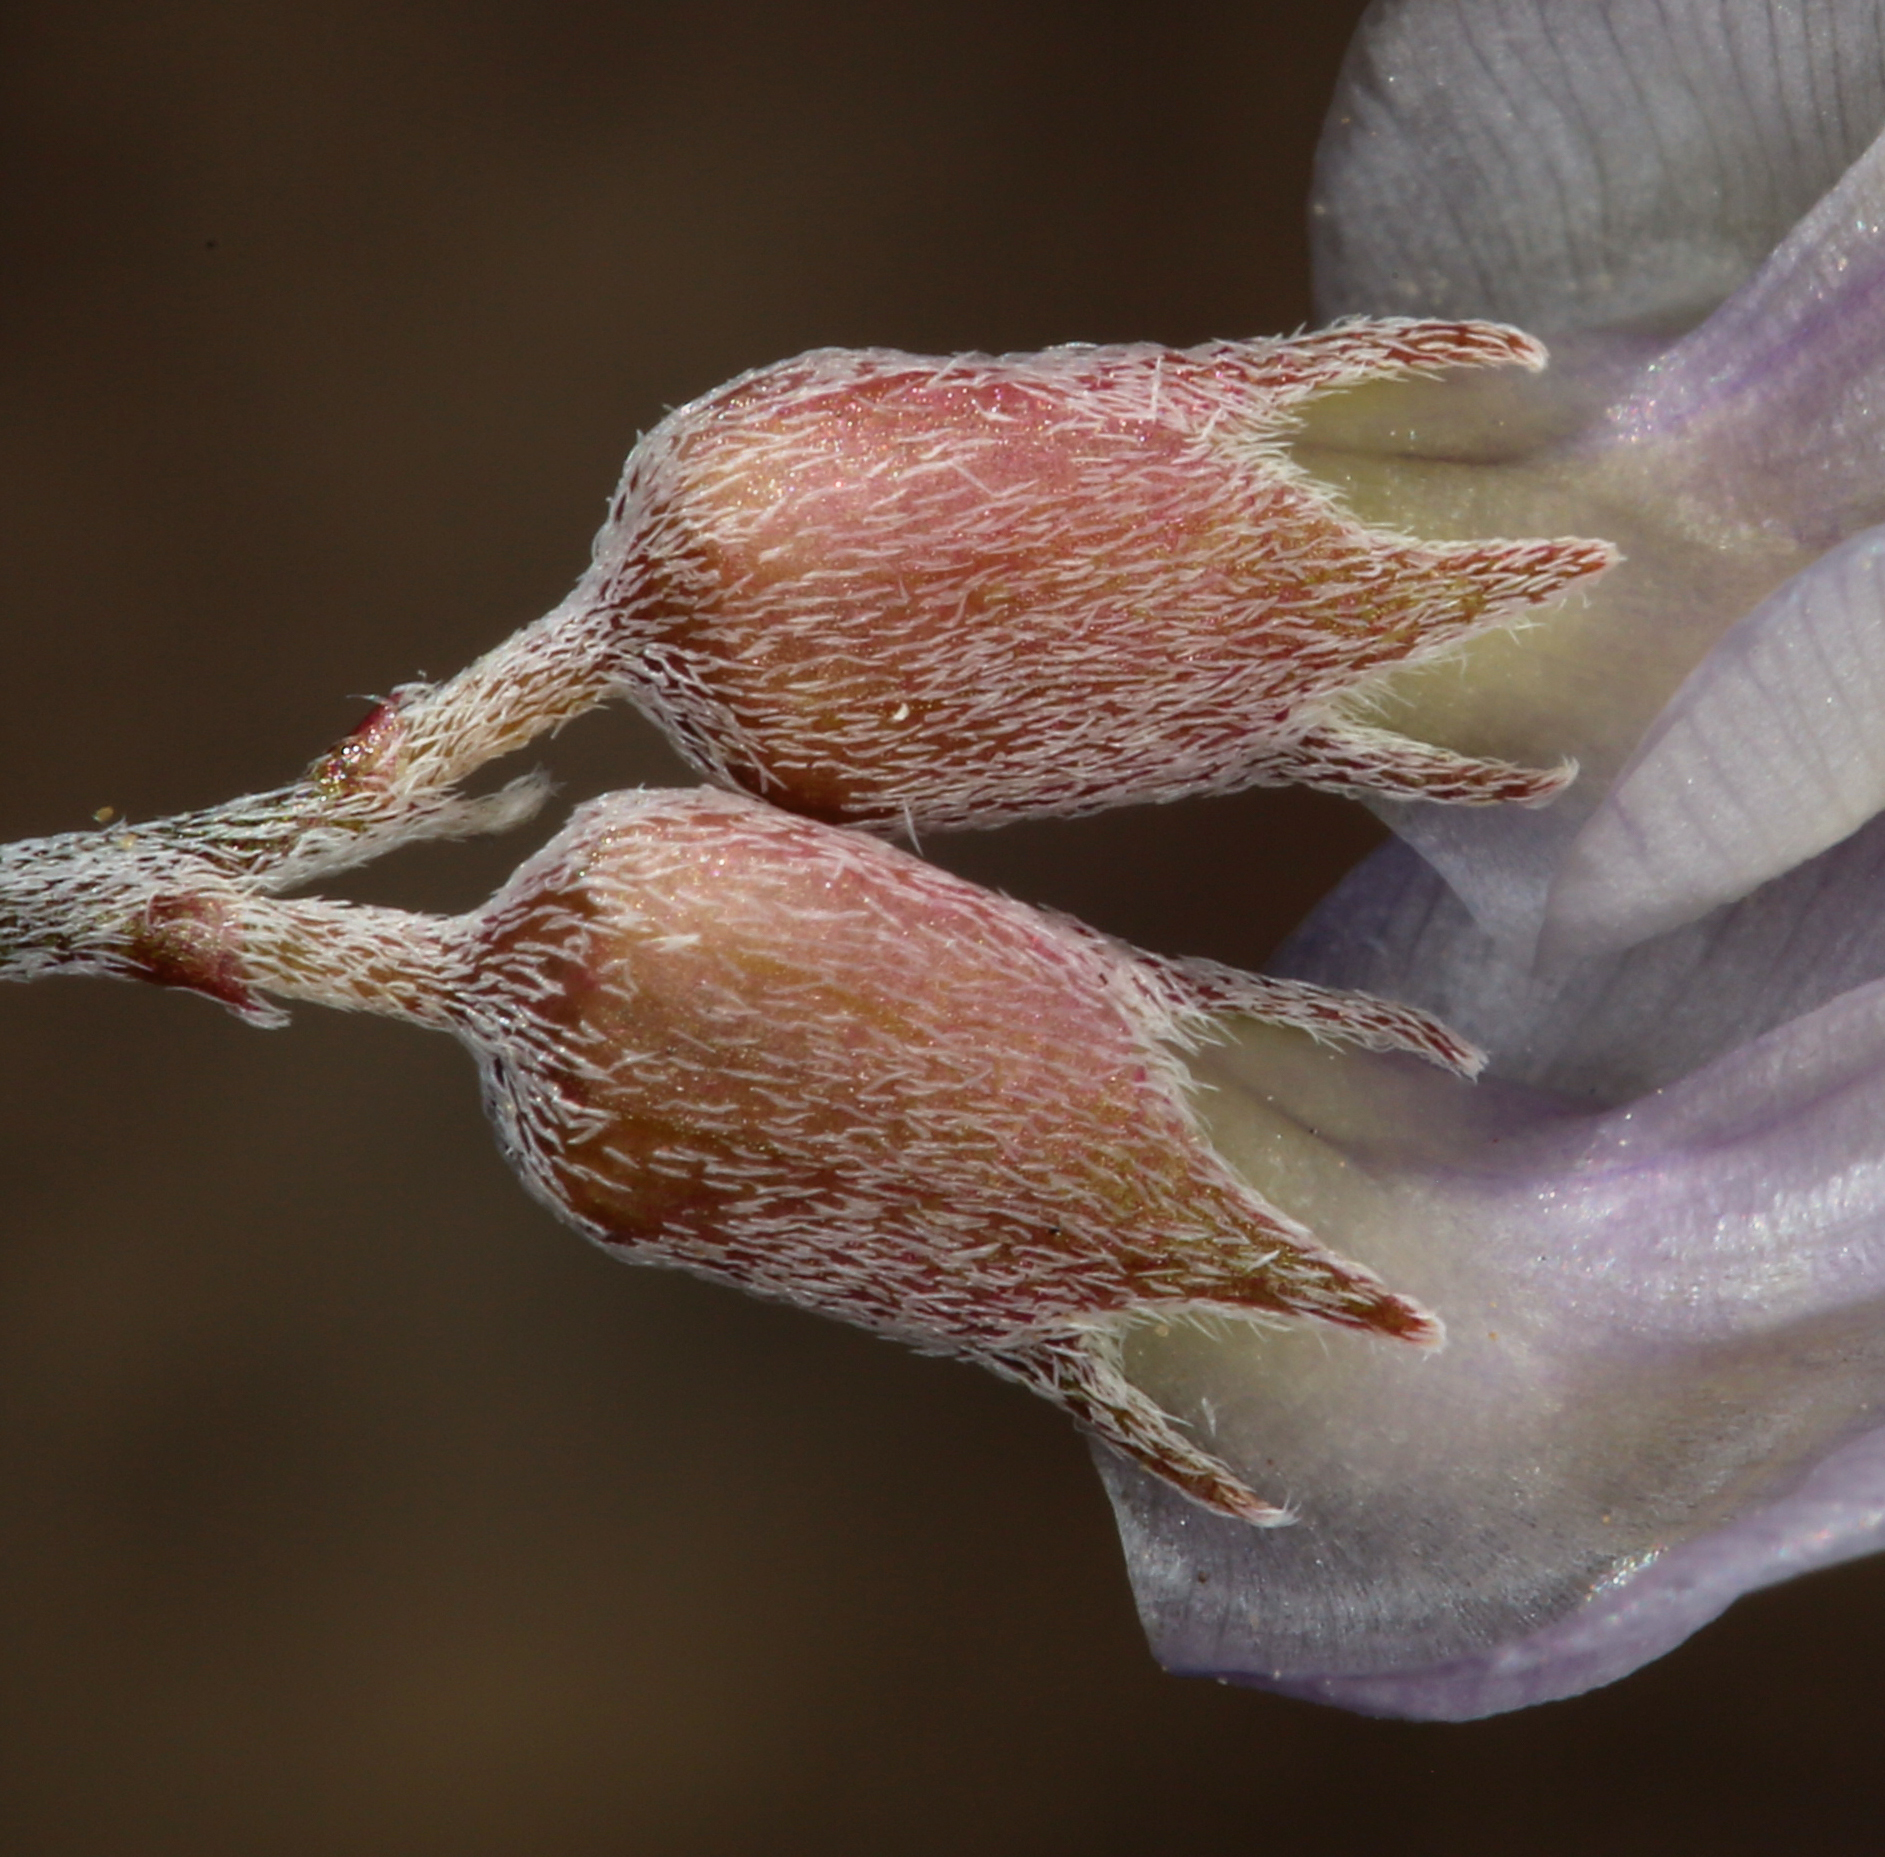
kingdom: Plantae
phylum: Tracheophyta
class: Magnoliopsida
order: Fabales
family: Fabaceae
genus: Astragalus
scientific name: Astragalus calycosus
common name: King's milkvetch
